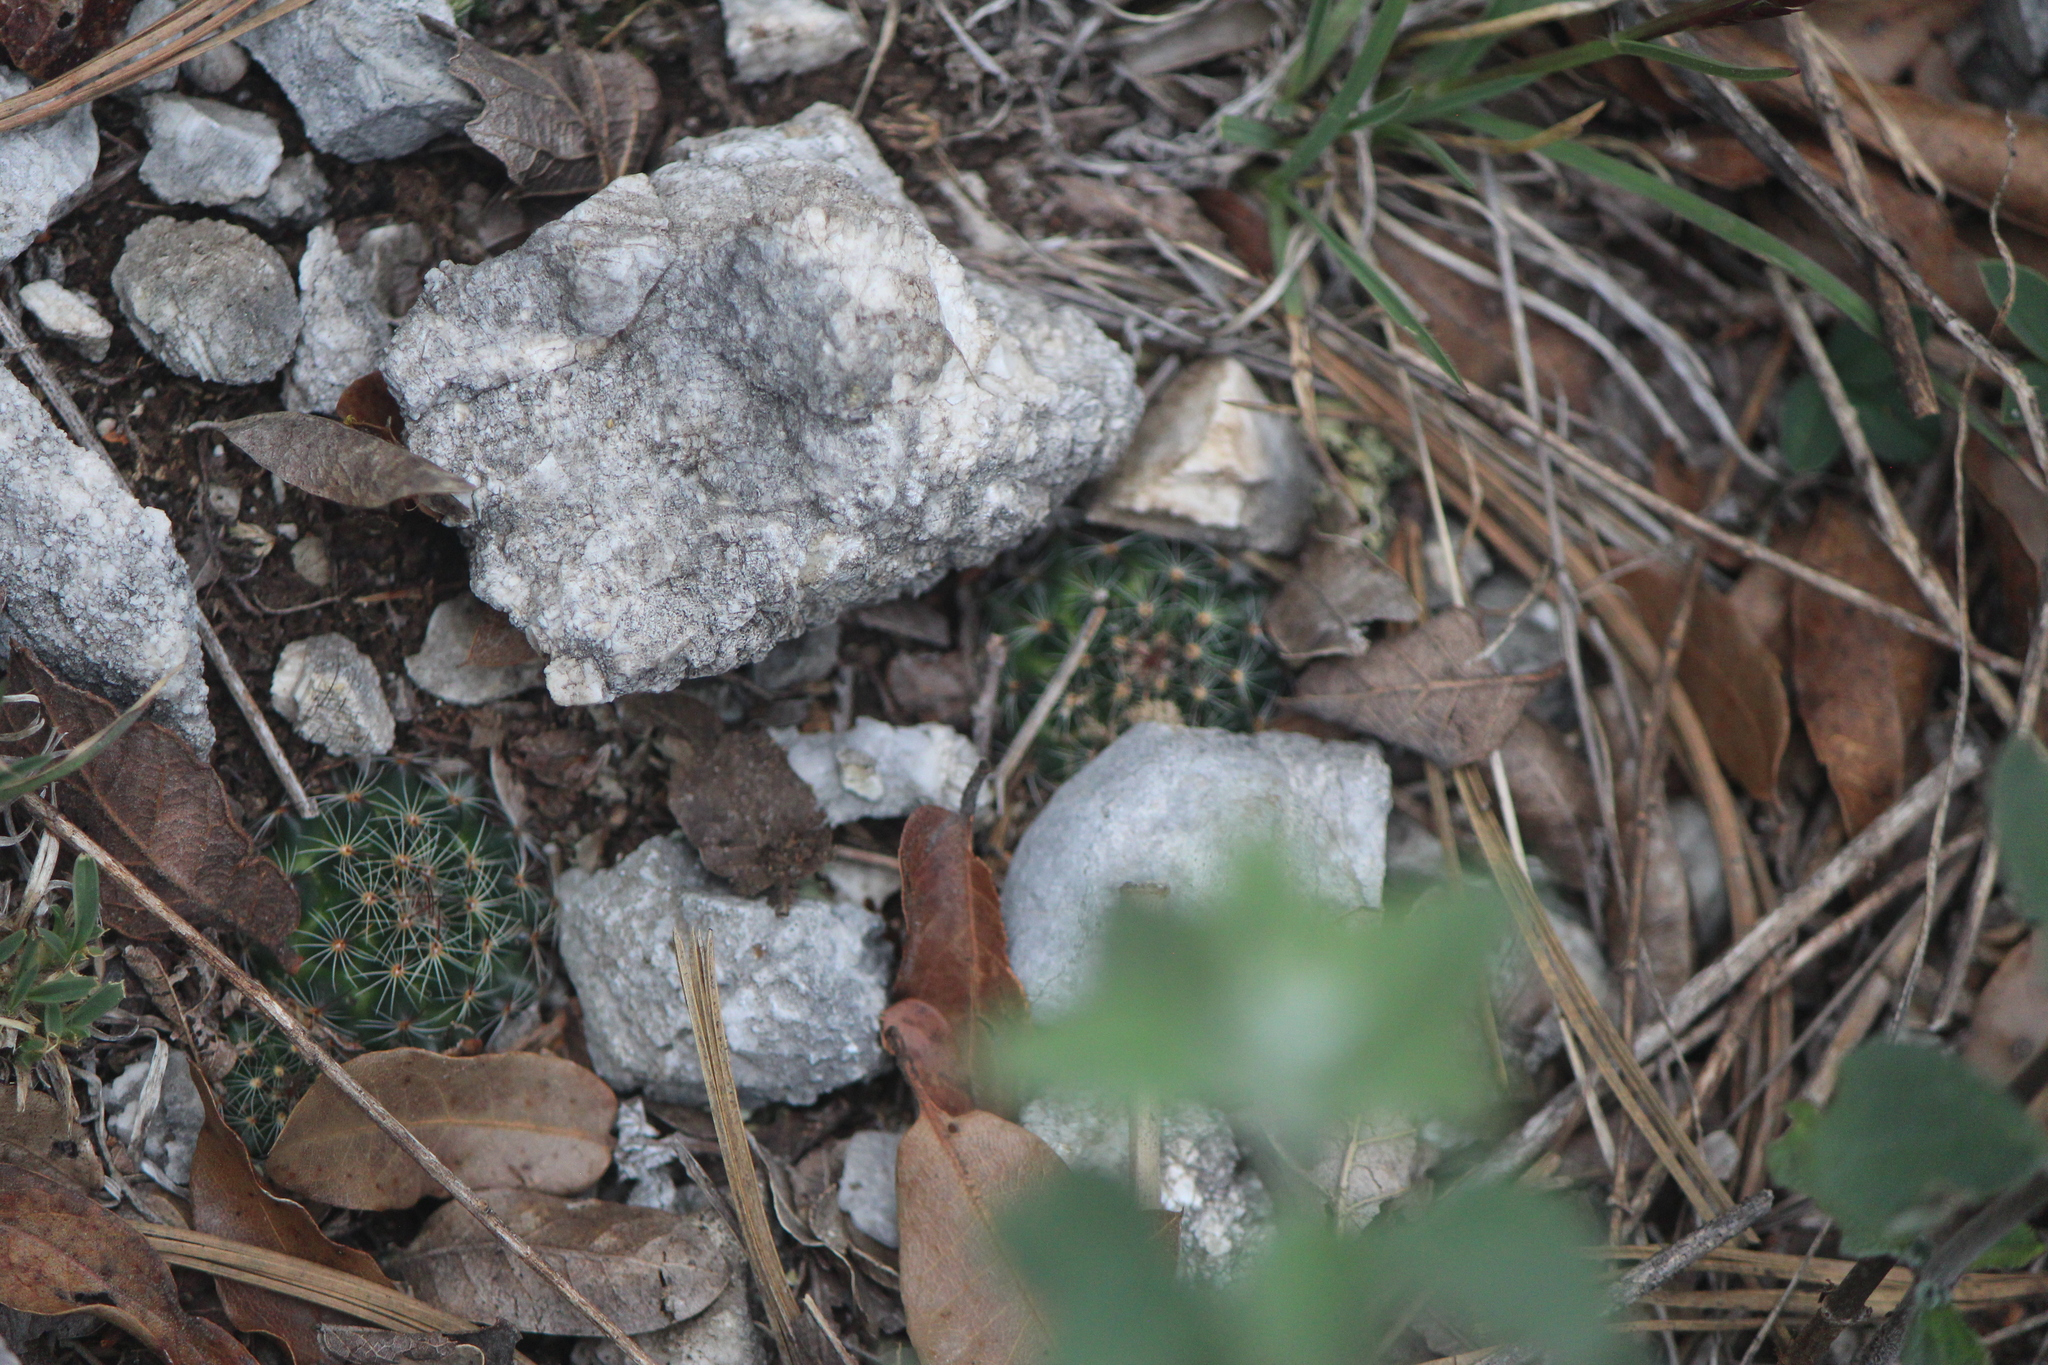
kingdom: Plantae
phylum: Tracheophyta
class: Magnoliopsida
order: Caryophyllales
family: Cactaceae
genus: Mammillaria
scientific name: Mammillaria occulta
